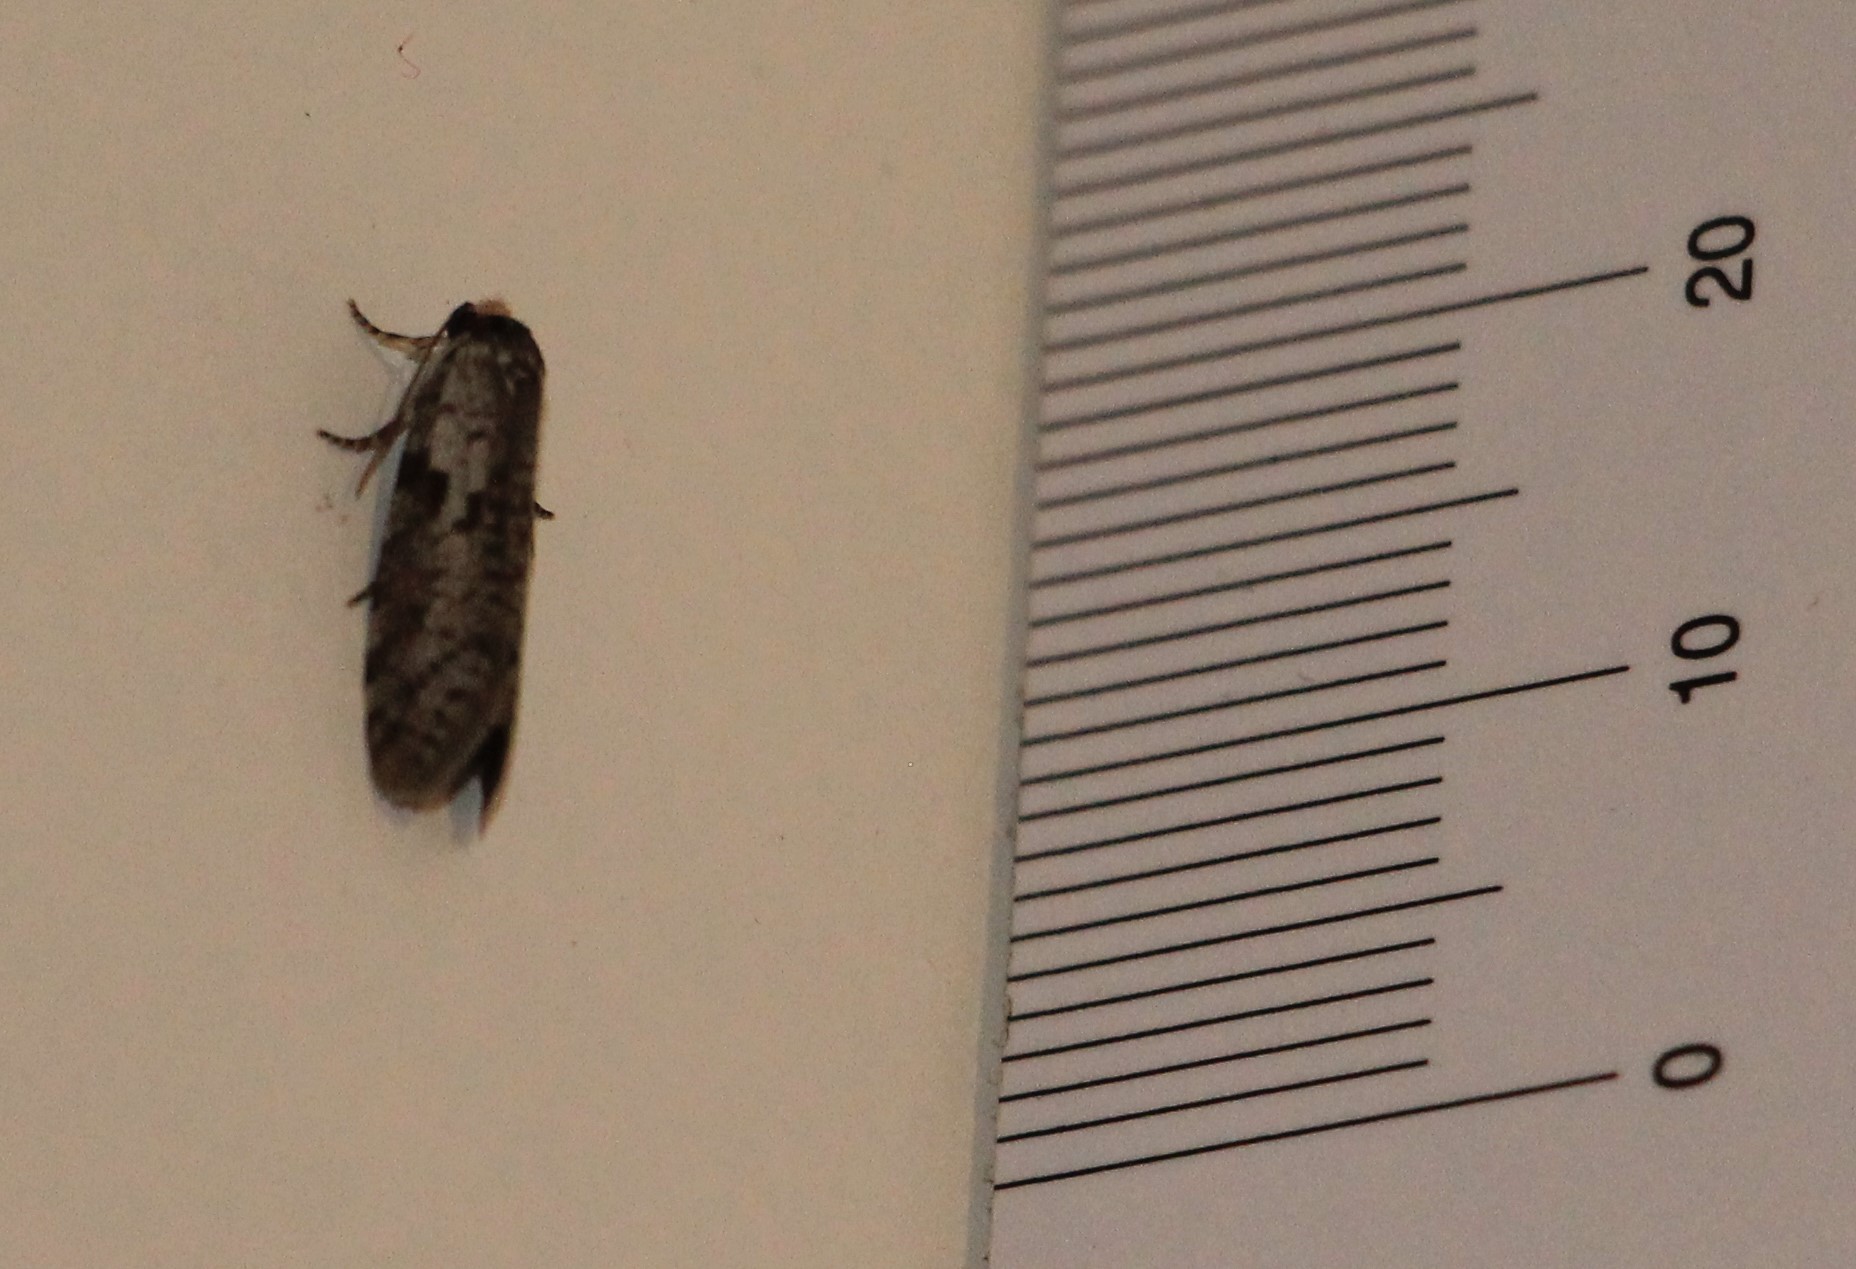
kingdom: Animalia
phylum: Arthropoda
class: Insecta
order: Lepidoptera
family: Psychidae
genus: Lepidoscia
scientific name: Lepidoscia protorna
